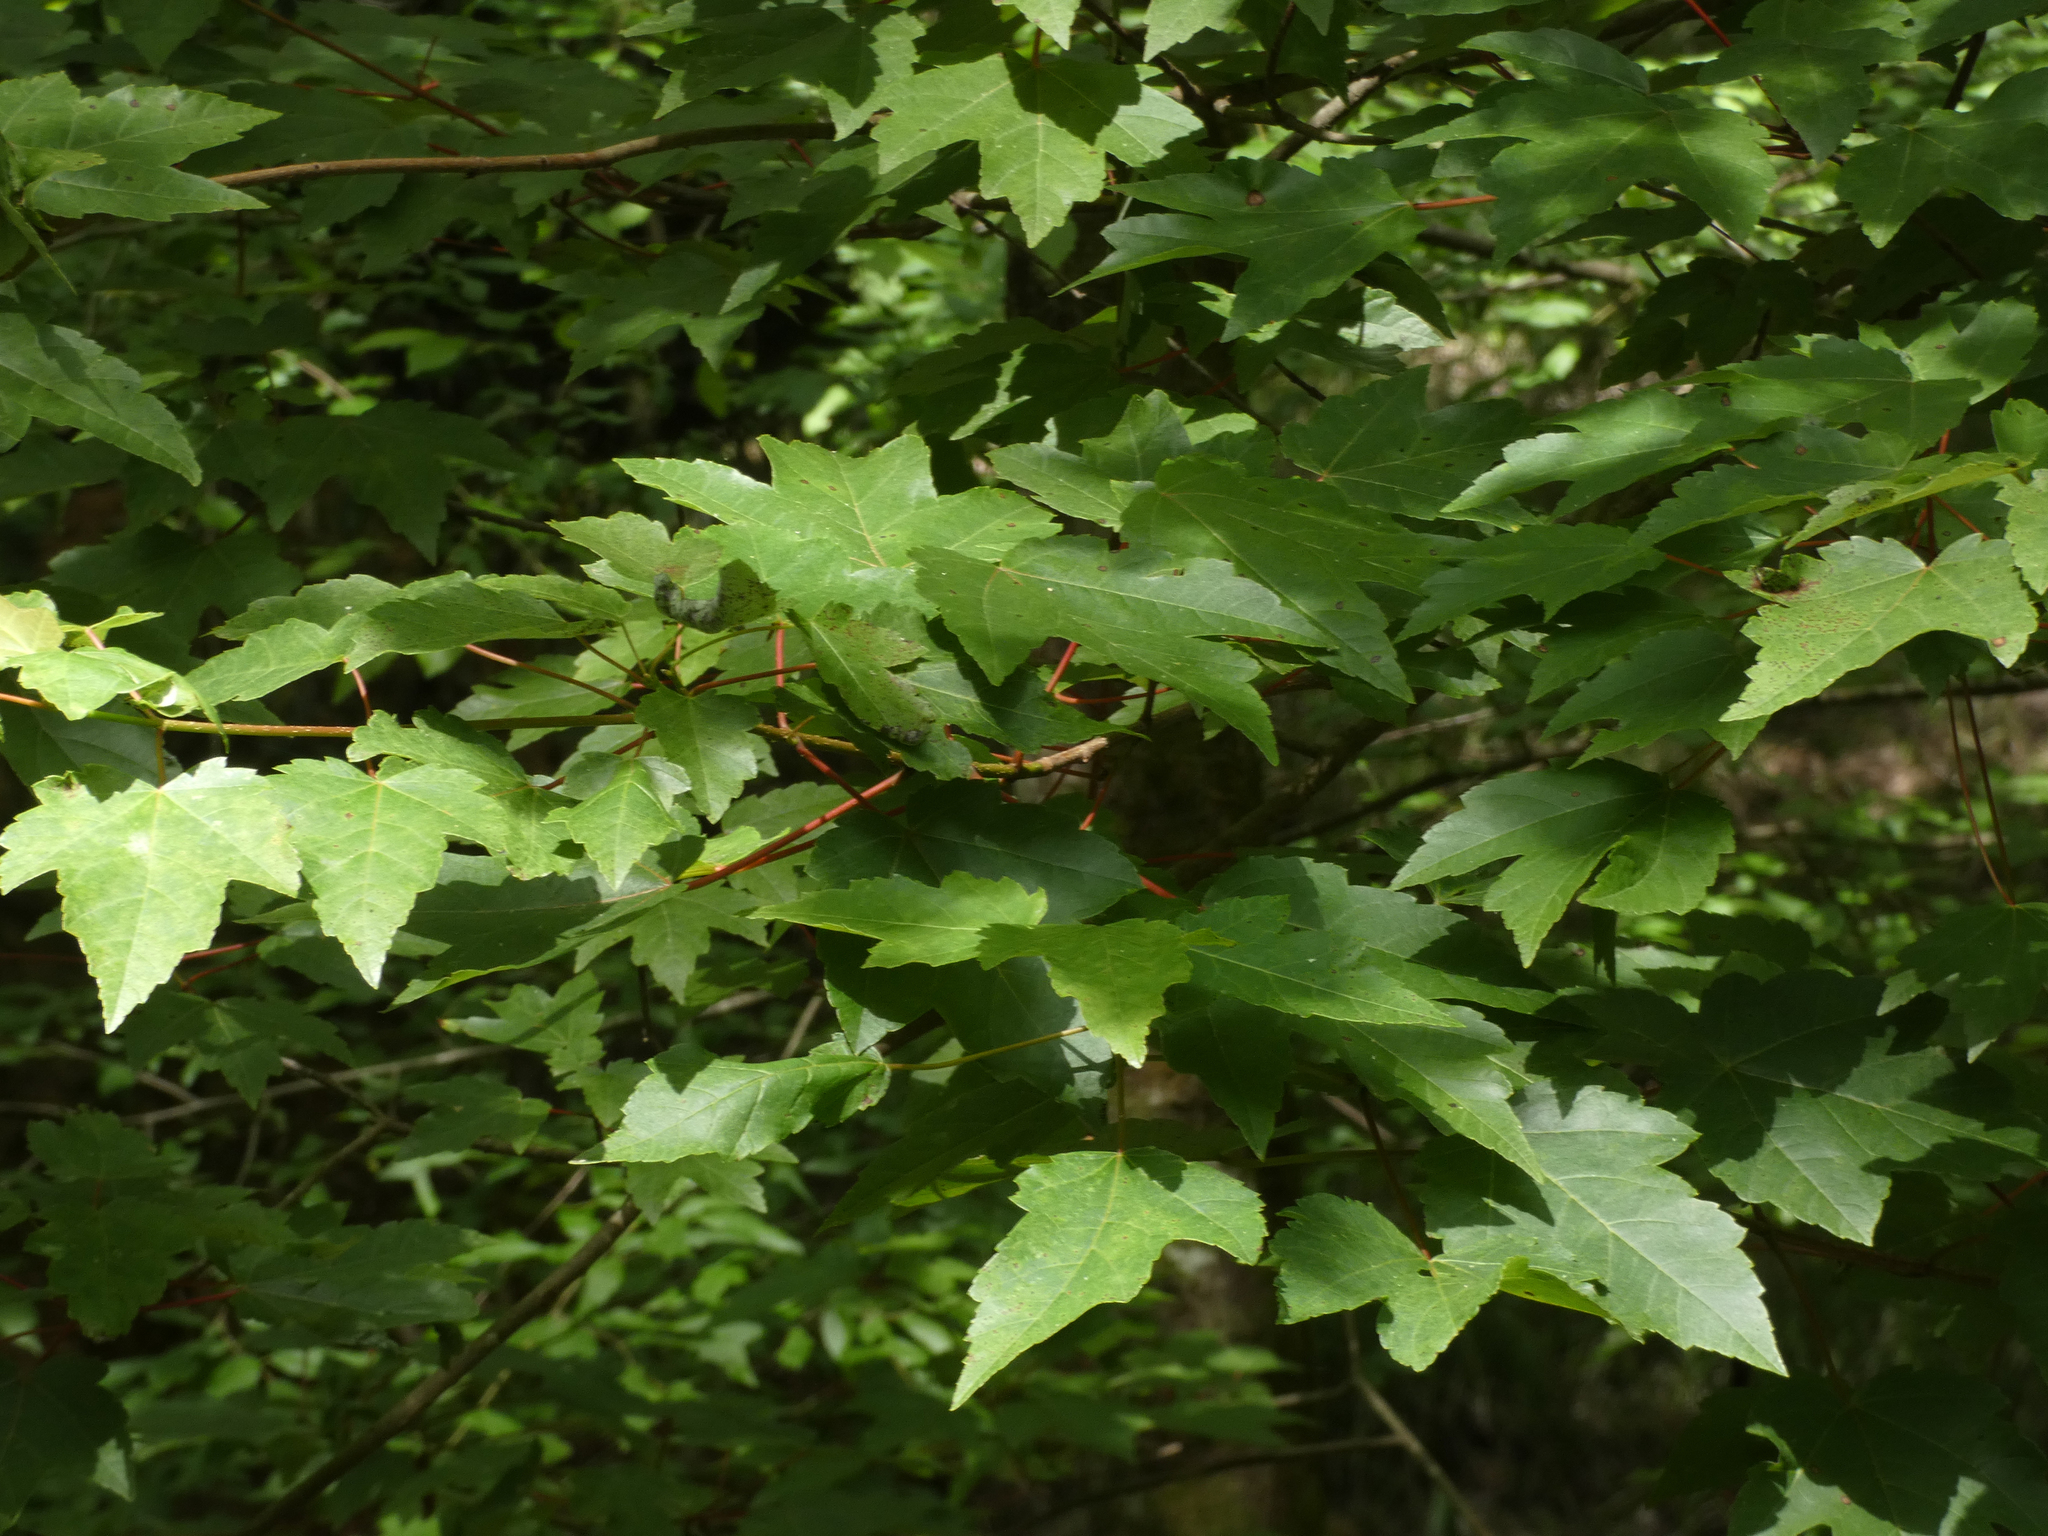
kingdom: Plantae
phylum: Tracheophyta
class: Magnoliopsida
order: Sapindales
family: Sapindaceae
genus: Acer
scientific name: Acer rubrum
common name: Red maple
